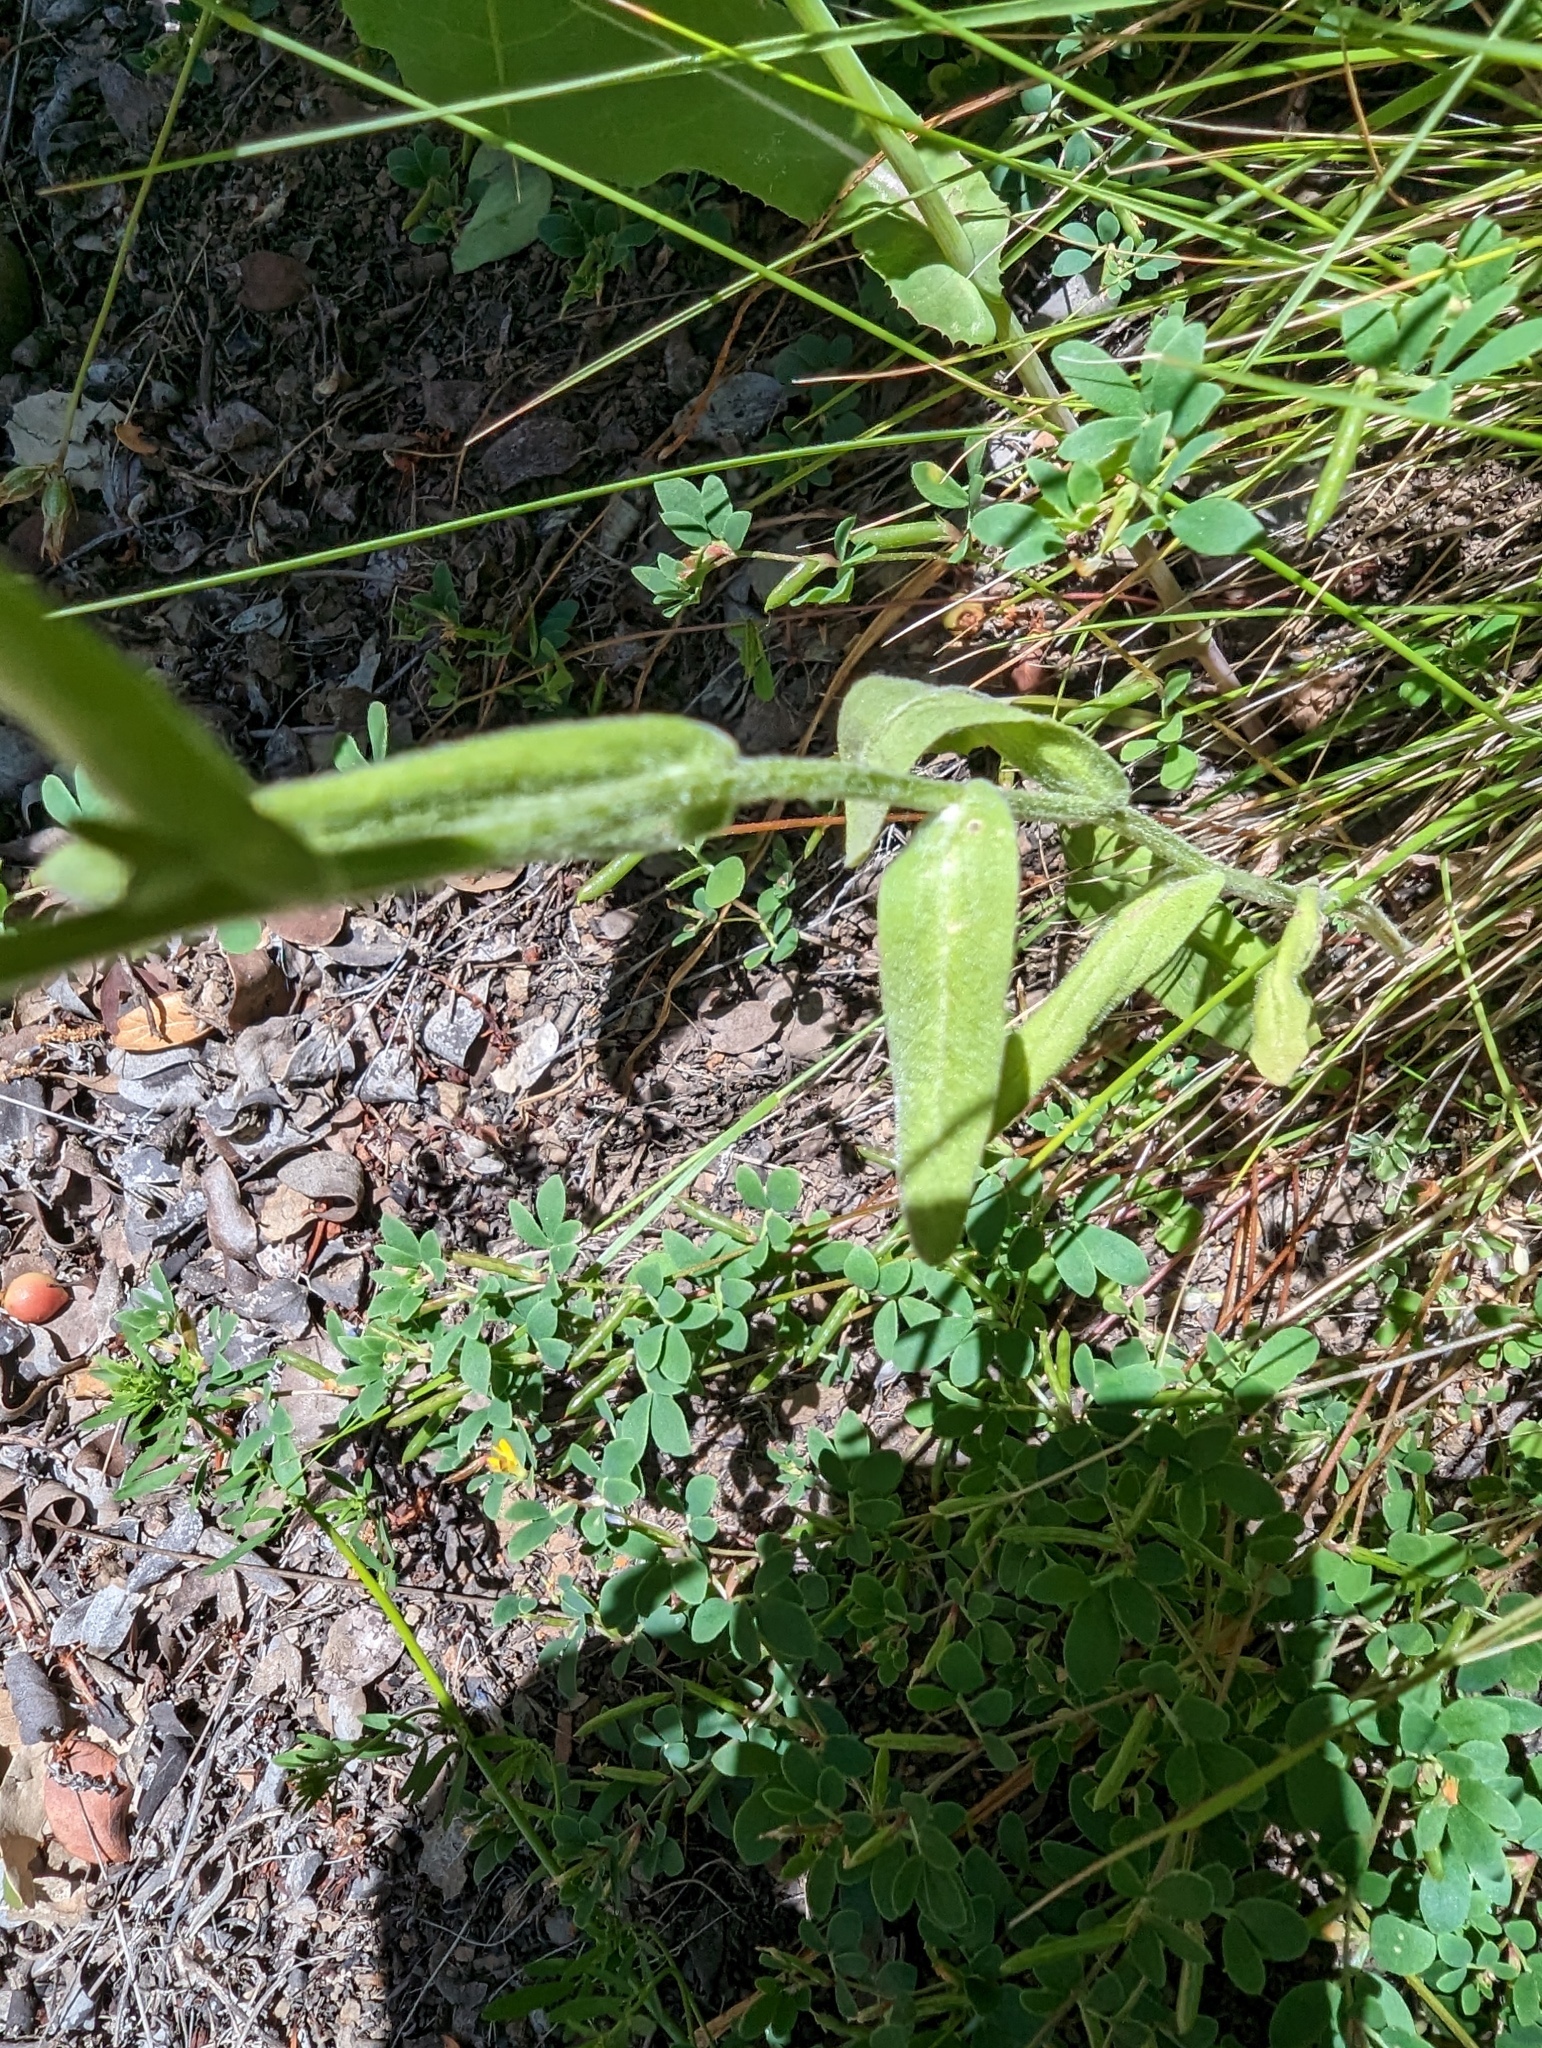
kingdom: Plantae
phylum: Tracheophyta
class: Magnoliopsida
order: Asterales
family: Asteraceae
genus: Monolopia
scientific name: Monolopia gracilens
